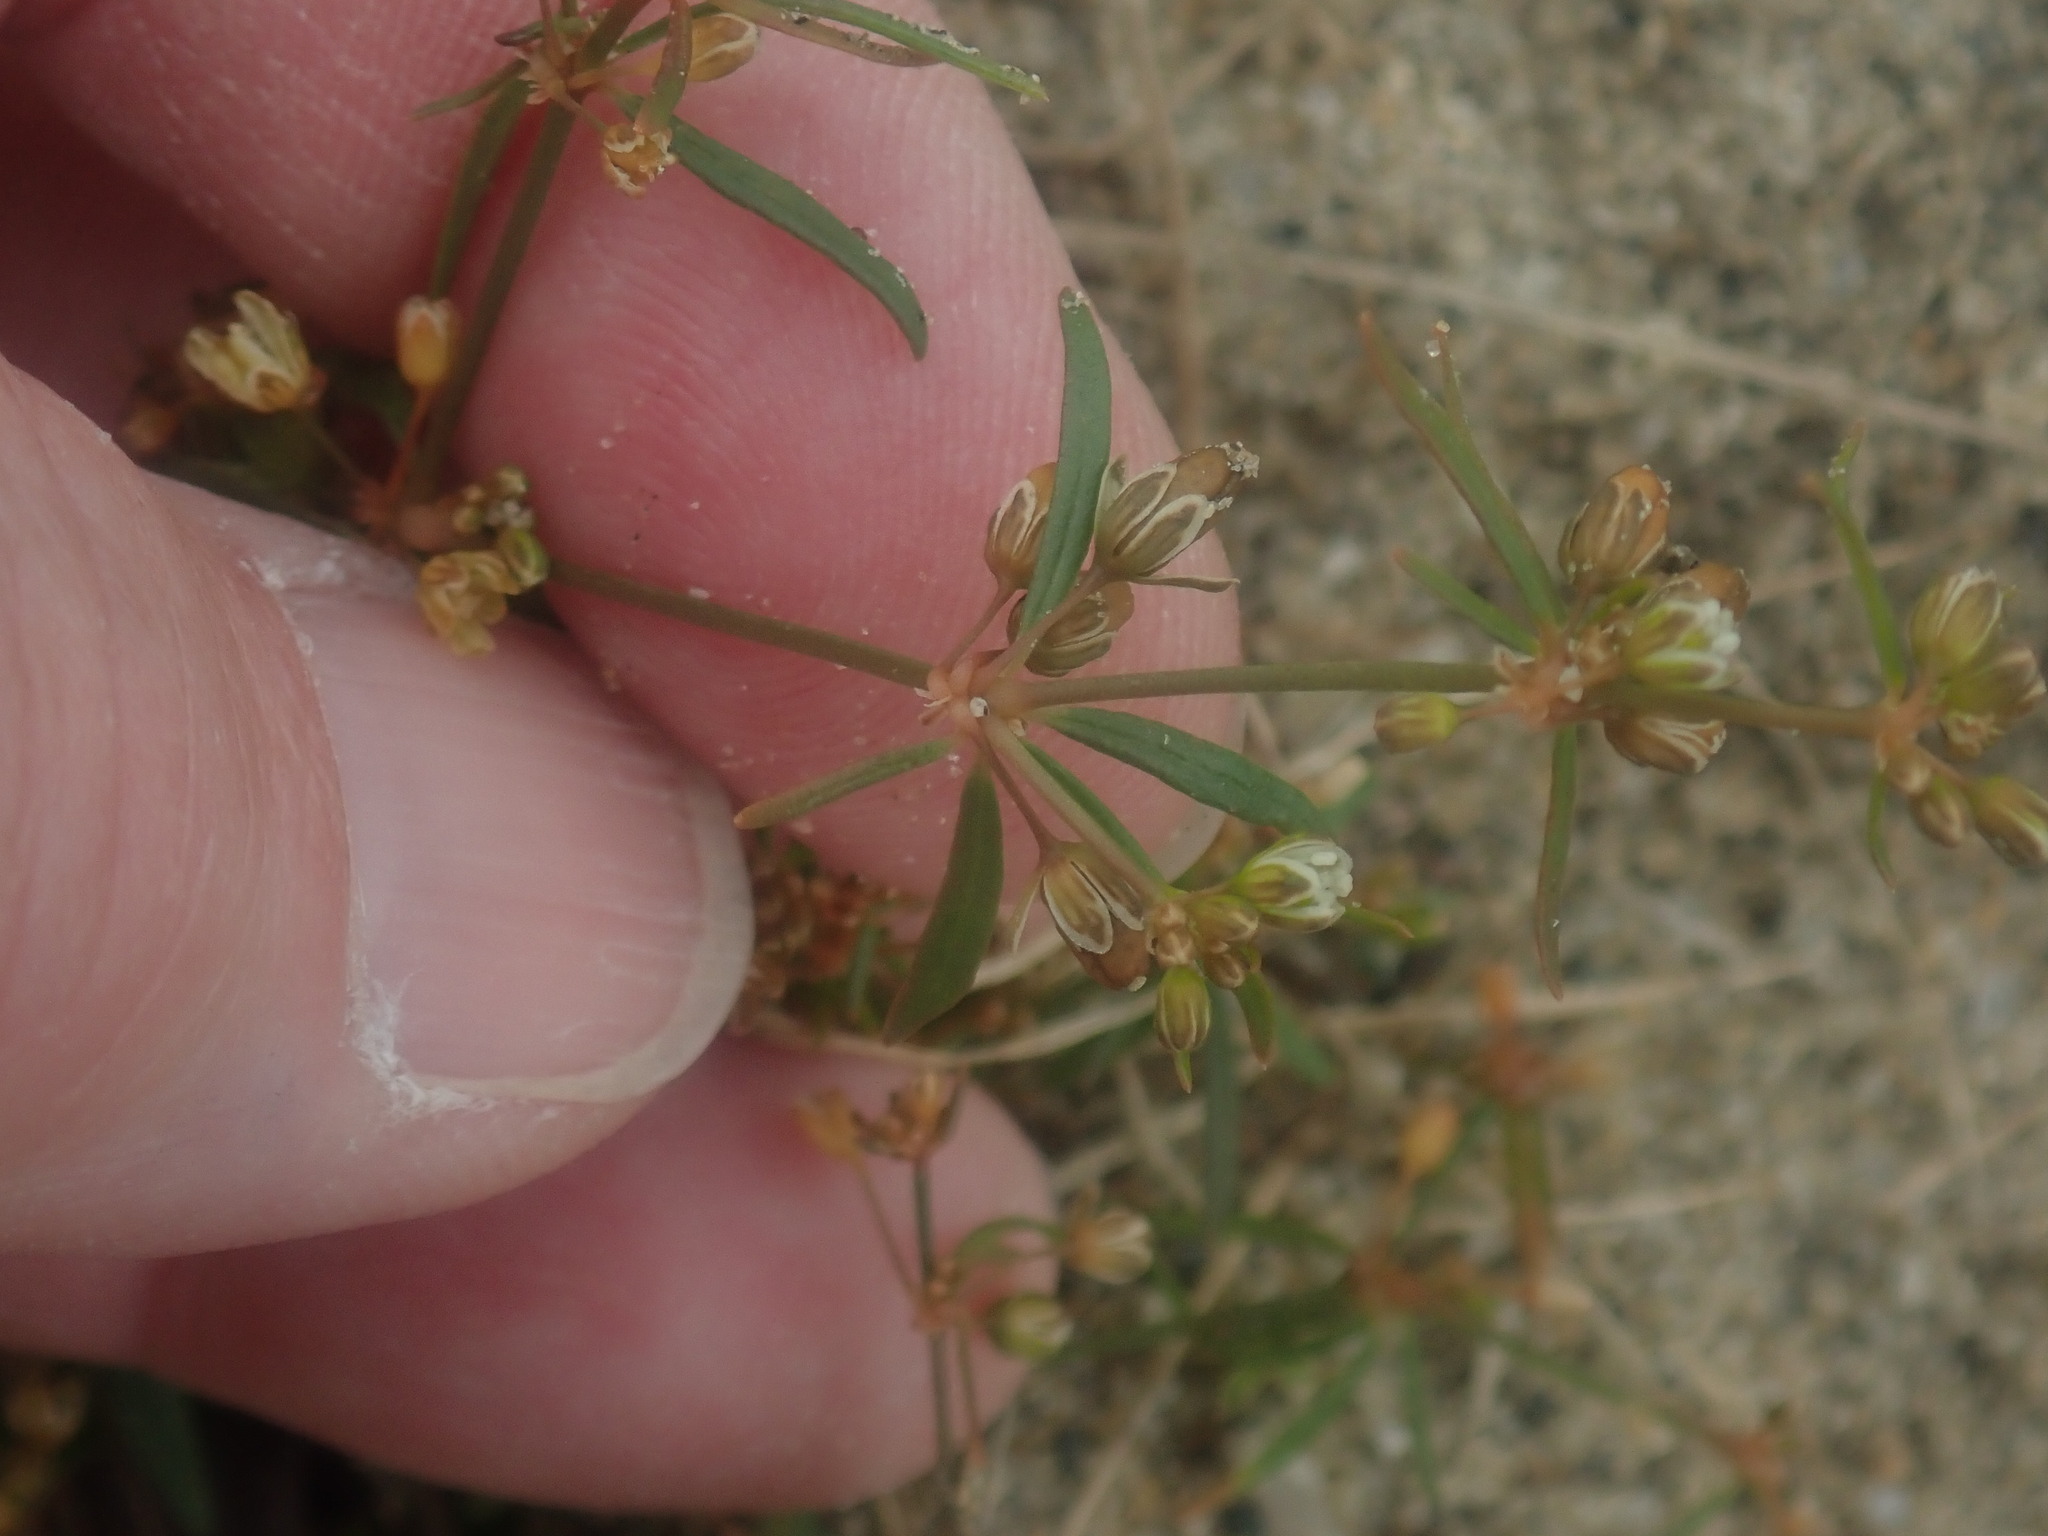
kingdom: Plantae
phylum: Tracheophyta
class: Magnoliopsida
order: Caryophyllales
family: Molluginaceae
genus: Mollugo
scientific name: Mollugo verticillata
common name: Green carpetweed
